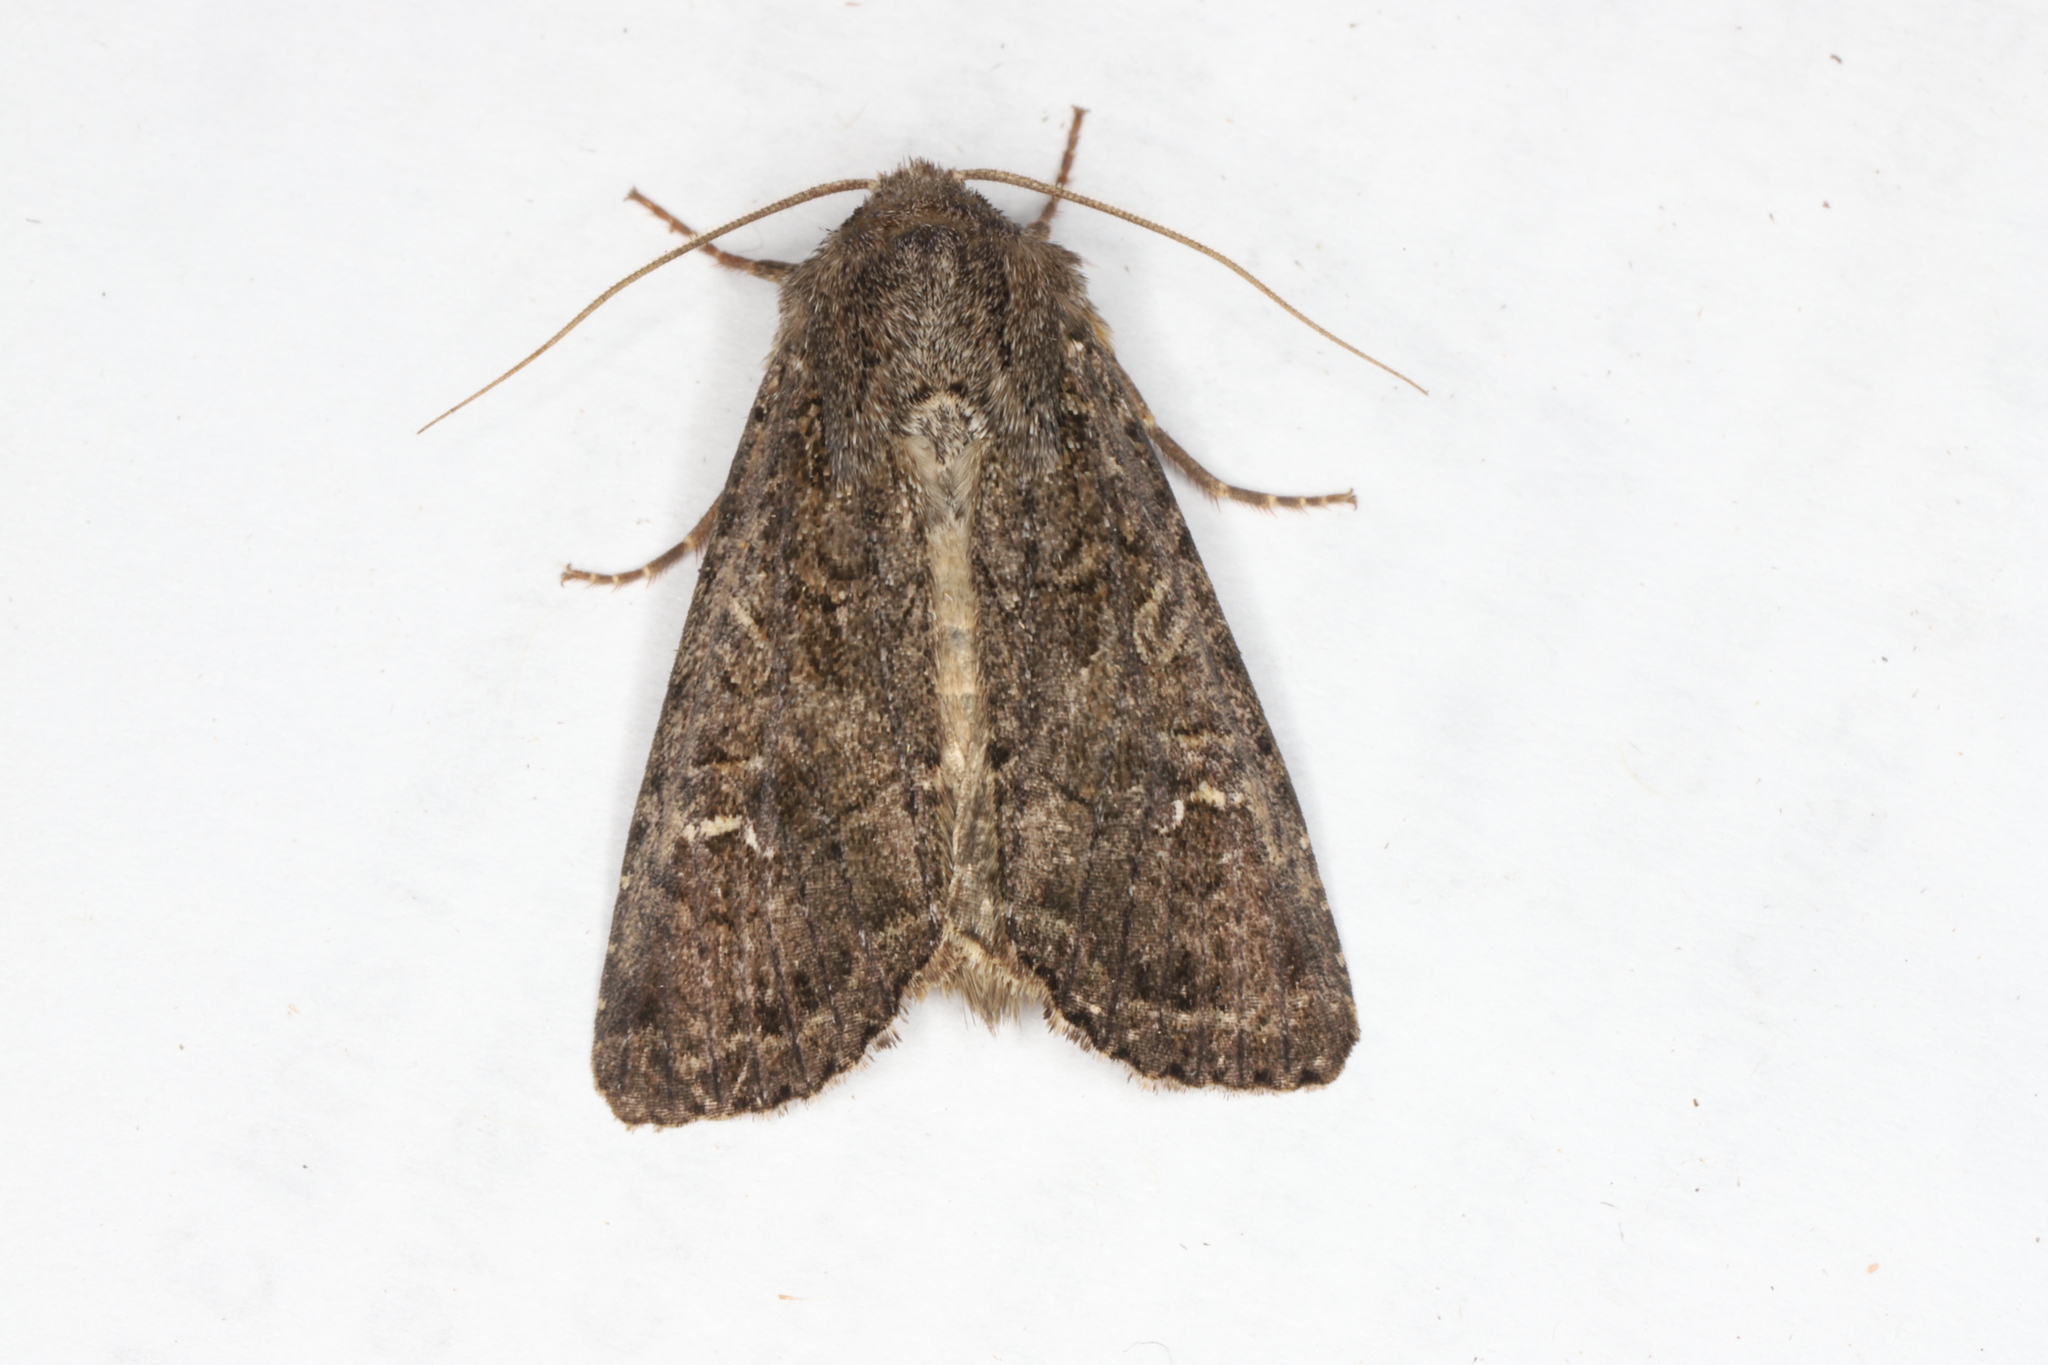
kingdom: Animalia
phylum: Arthropoda
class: Insecta
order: Lepidoptera
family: Noctuidae
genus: Apamea
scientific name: Apamea devastator
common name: Glassy cutworm
